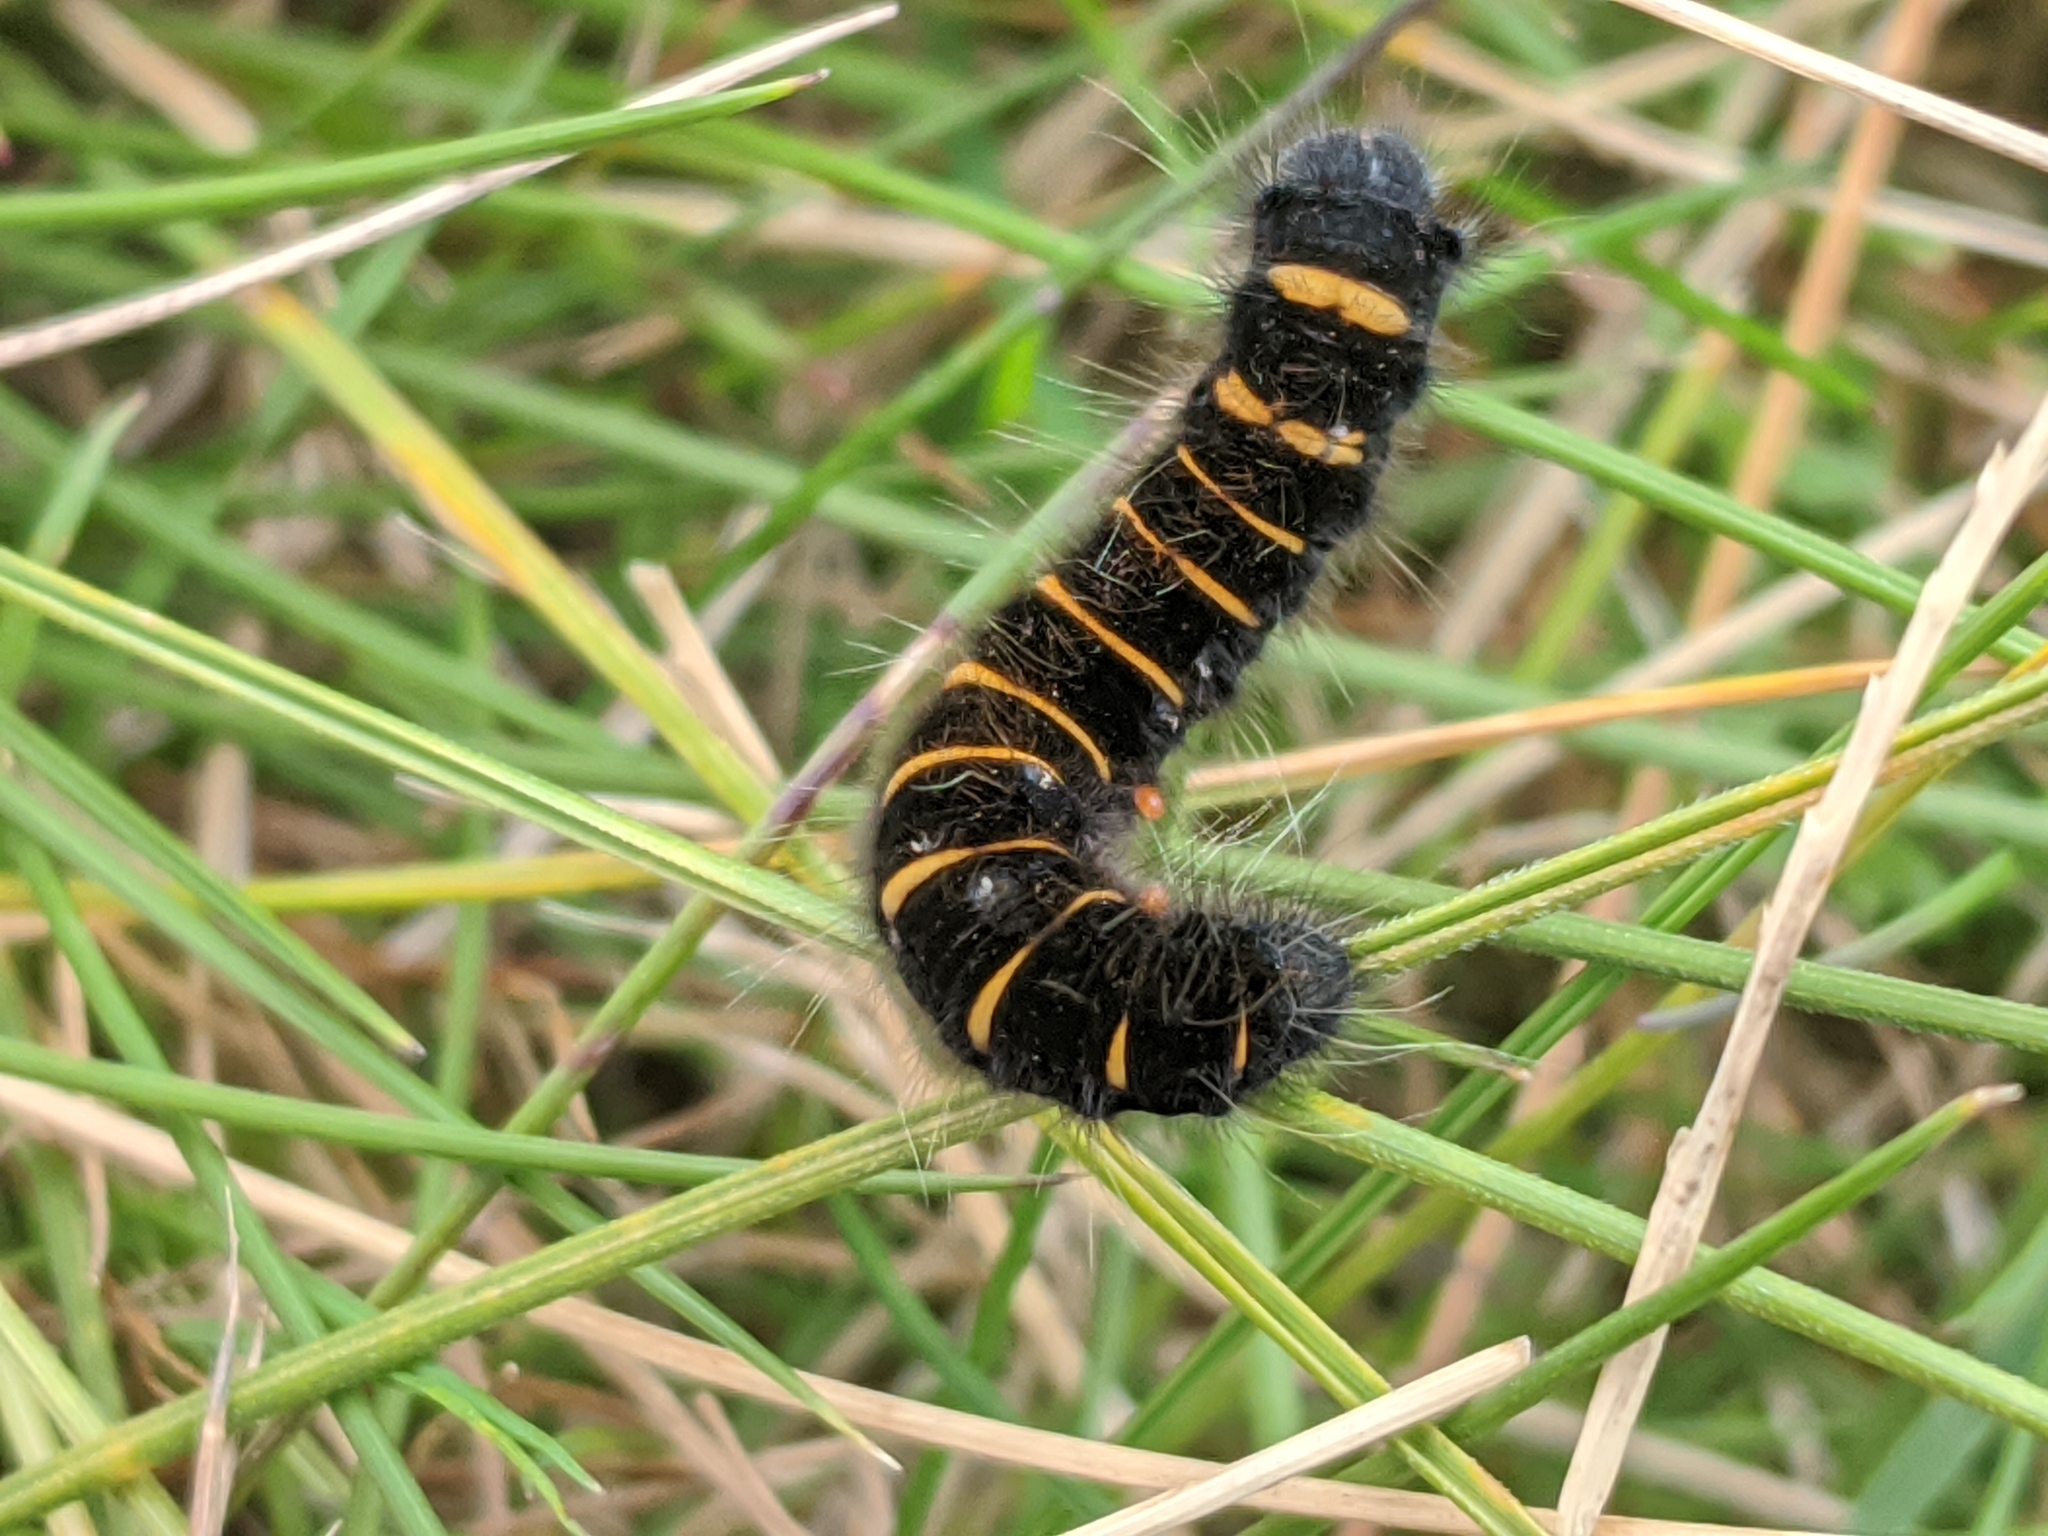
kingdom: Animalia
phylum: Arthropoda
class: Insecta
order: Lepidoptera
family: Lasiocampidae
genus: Macrothylacia
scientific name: Macrothylacia rubi
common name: Fox moth
